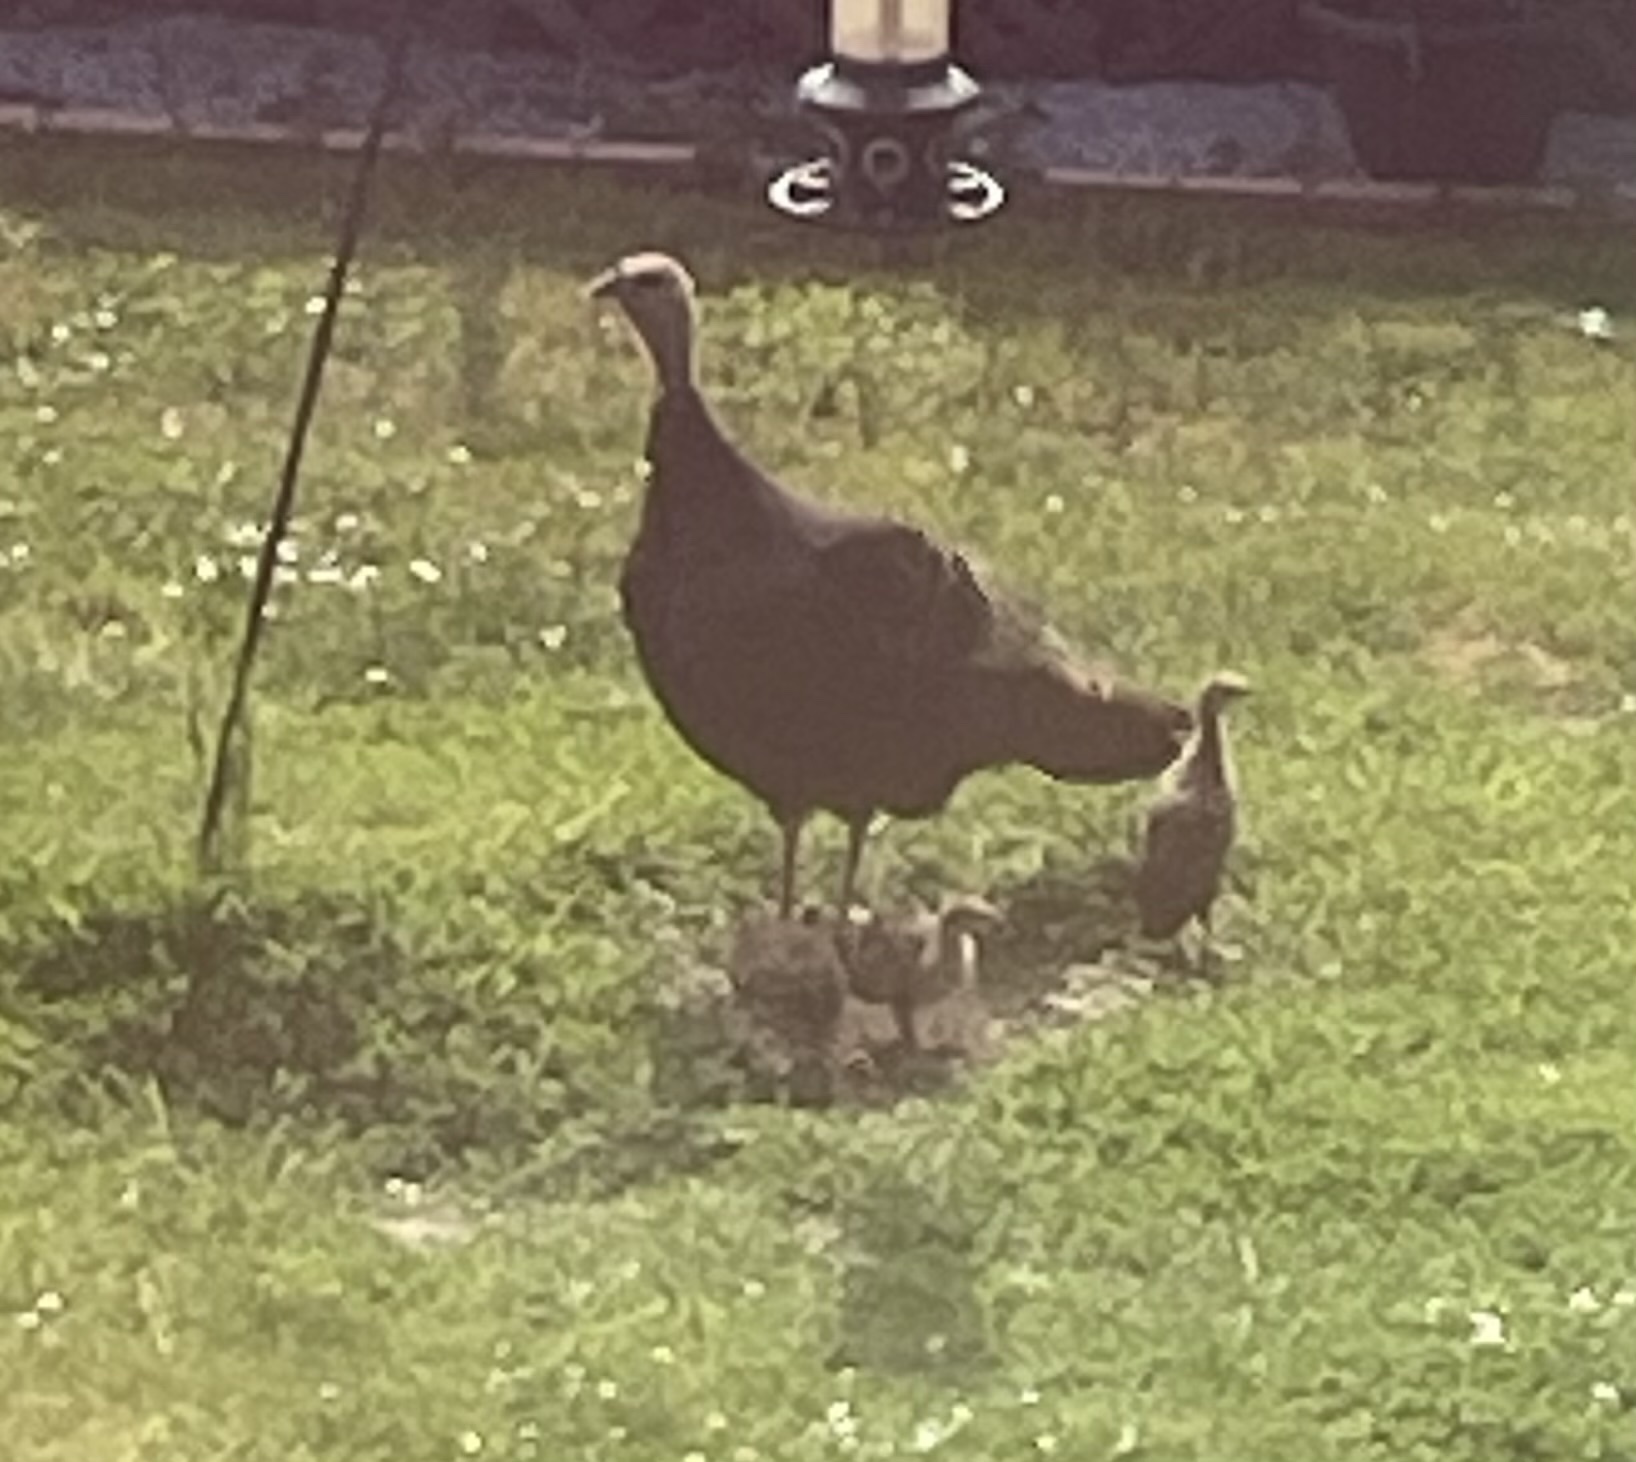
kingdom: Animalia
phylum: Chordata
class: Aves
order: Galliformes
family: Phasianidae
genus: Meleagris
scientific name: Meleagris gallopavo
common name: Wild turkey
